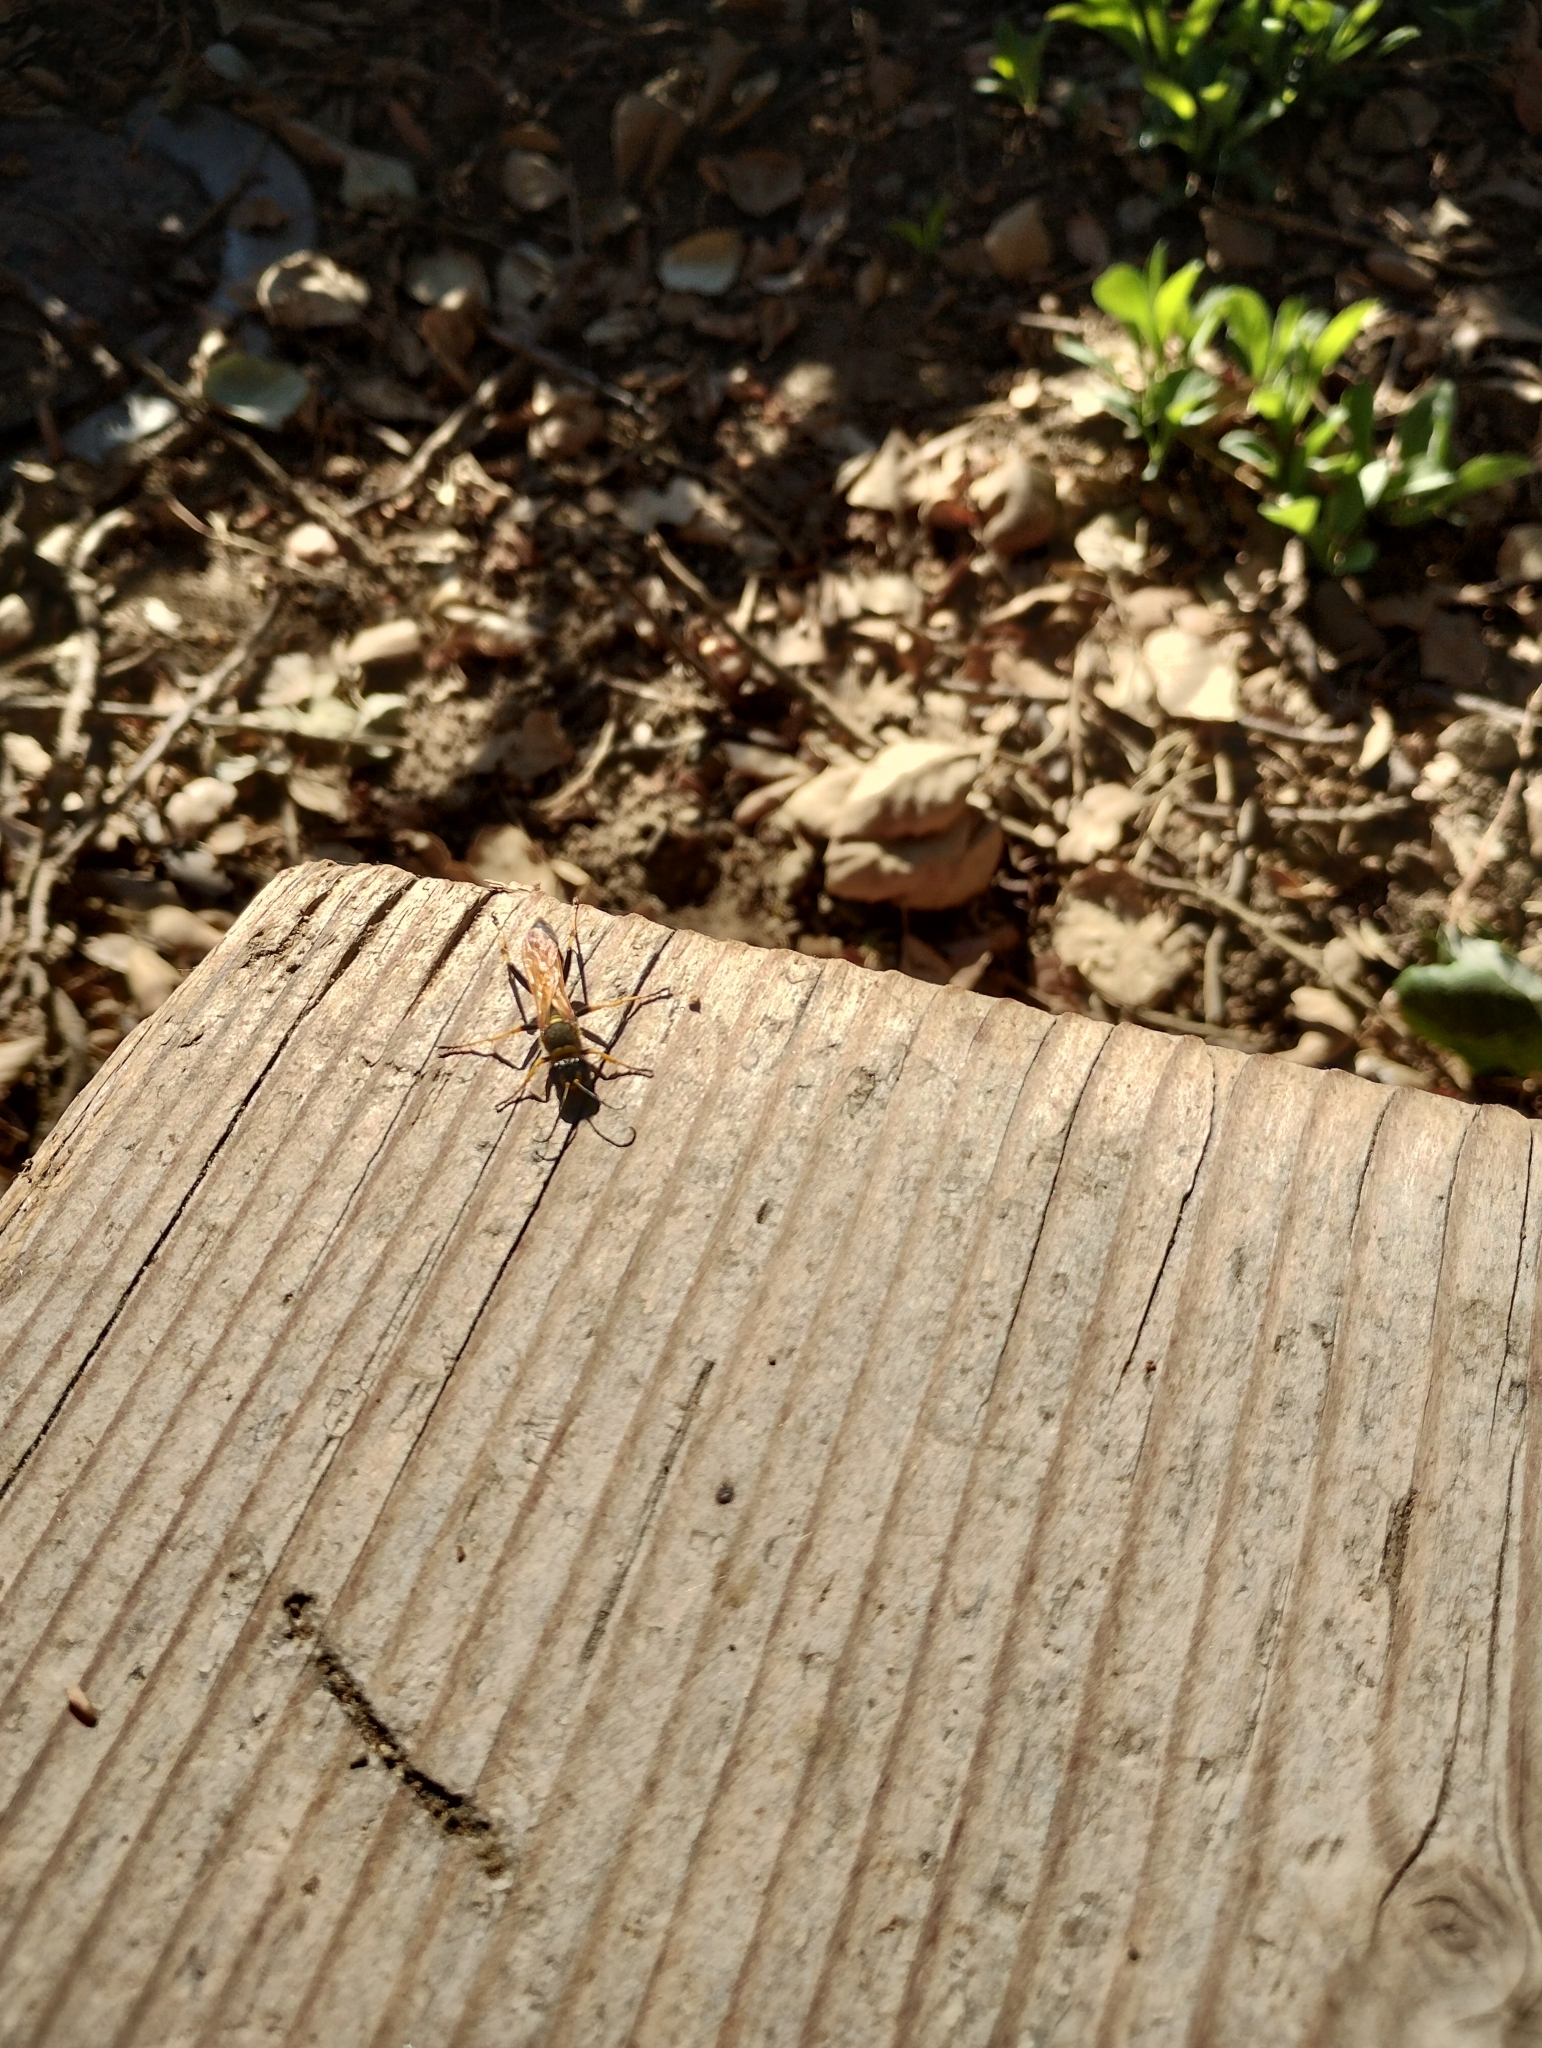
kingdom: Animalia
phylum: Arthropoda
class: Insecta
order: Hymenoptera
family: Sphecidae
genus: Sceliphron
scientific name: Sceliphron caementarium
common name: Mud dauber
